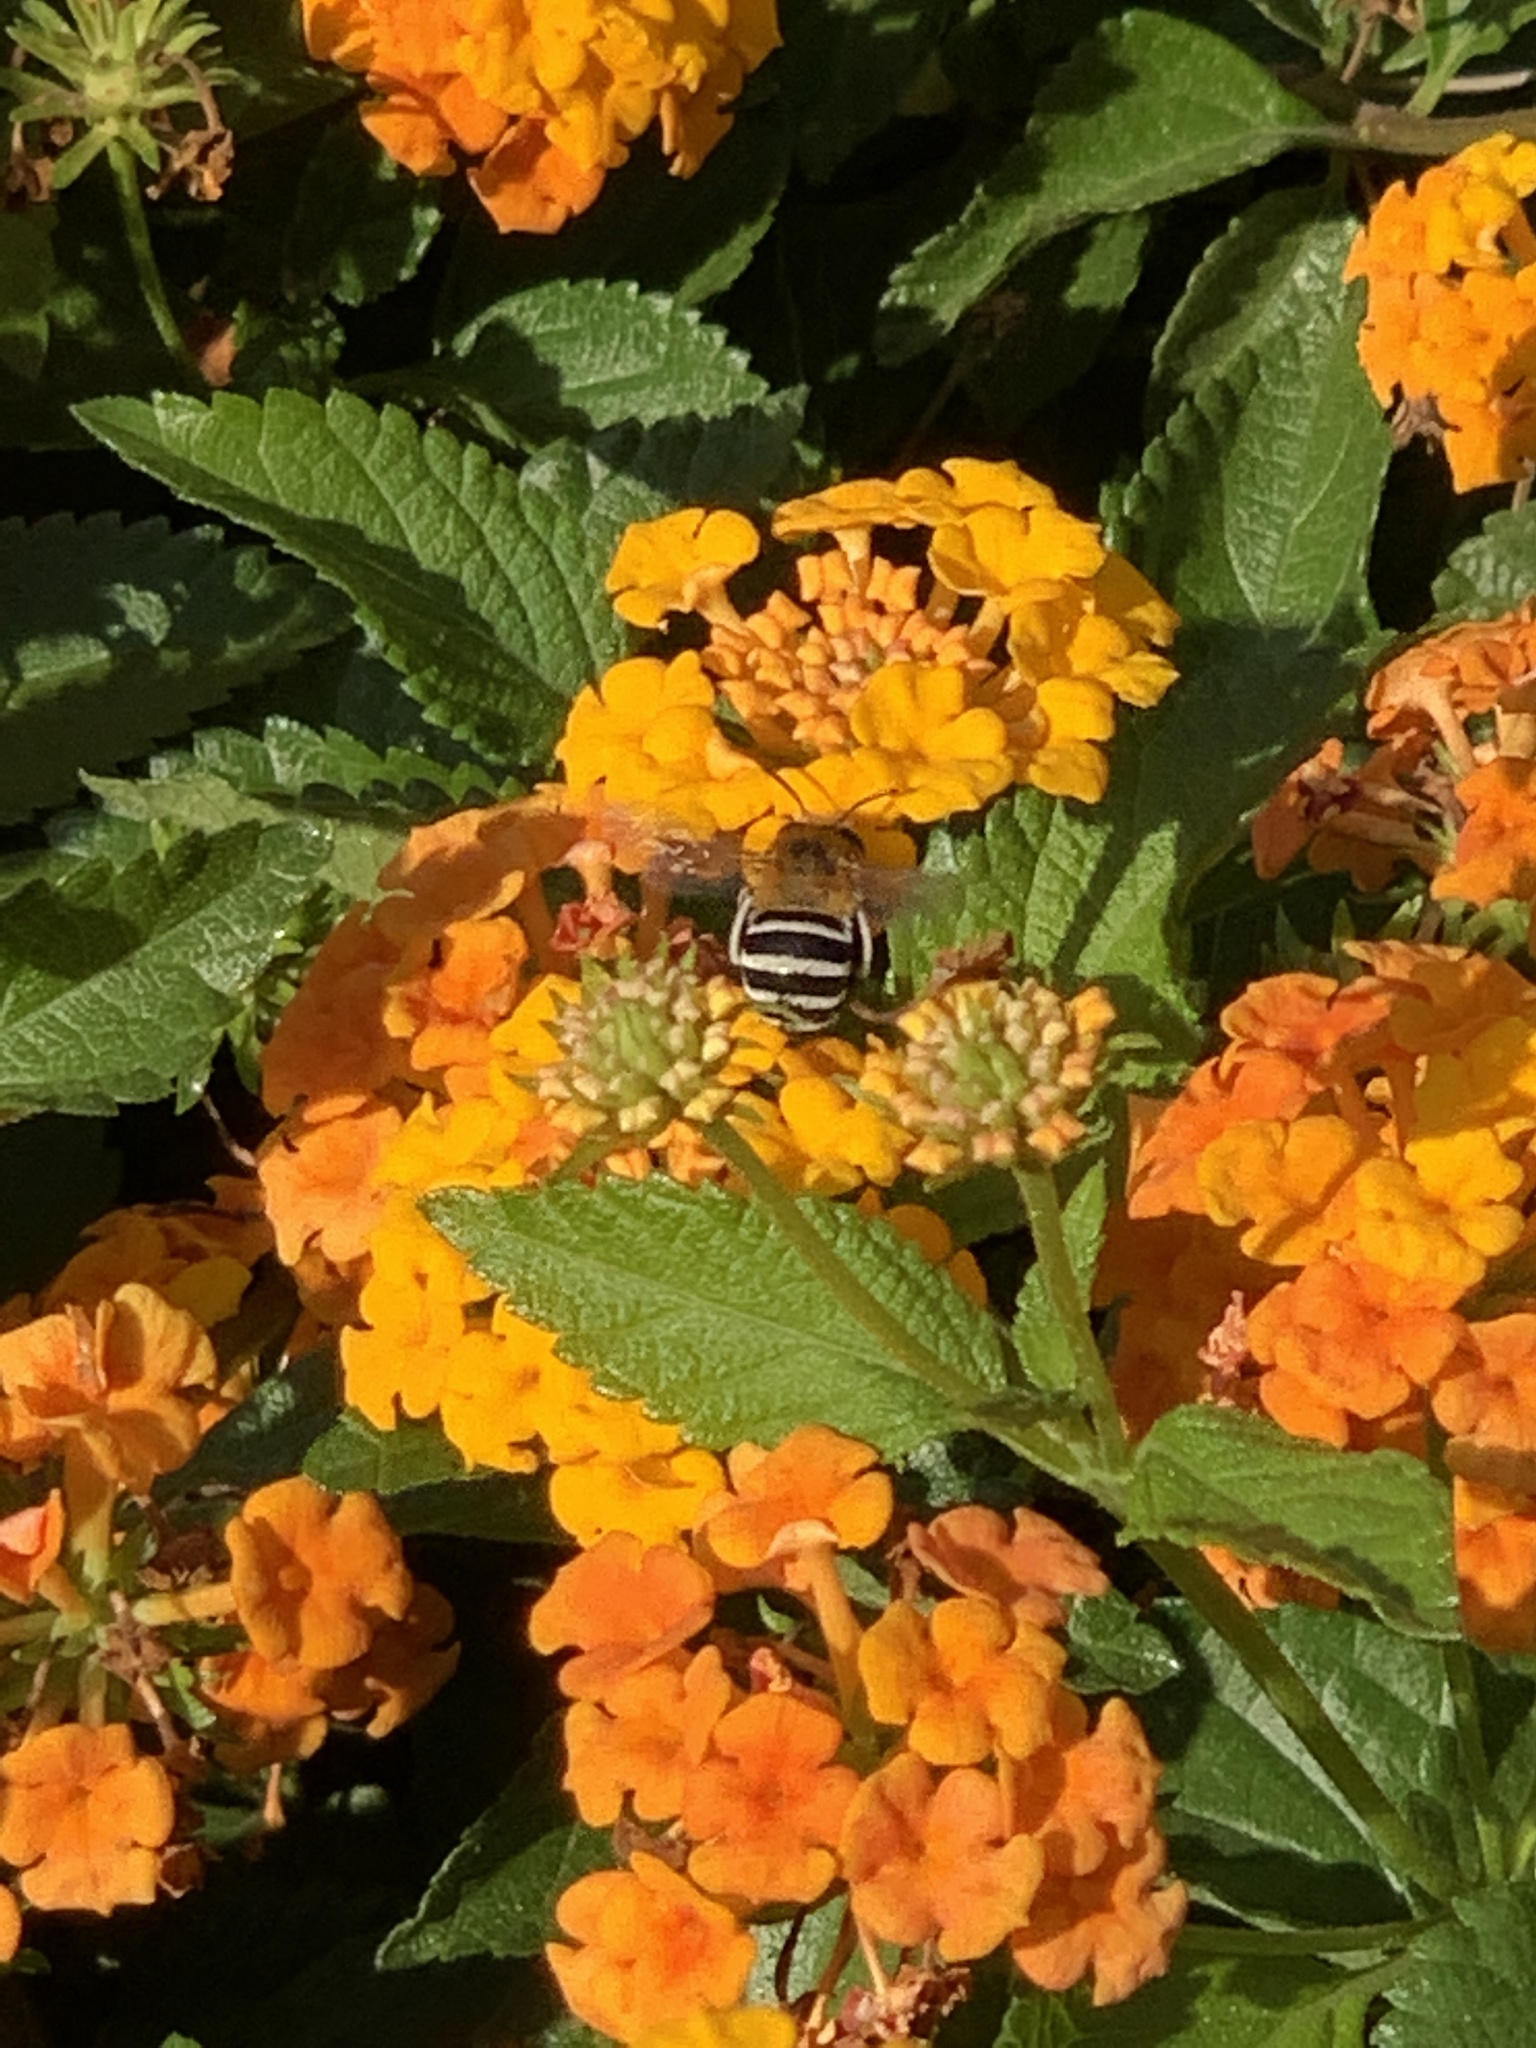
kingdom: Animalia
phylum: Arthropoda
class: Insecta
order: Hymenoptera
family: Apidae
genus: Amegilla
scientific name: Amegilla quadrifasciata
